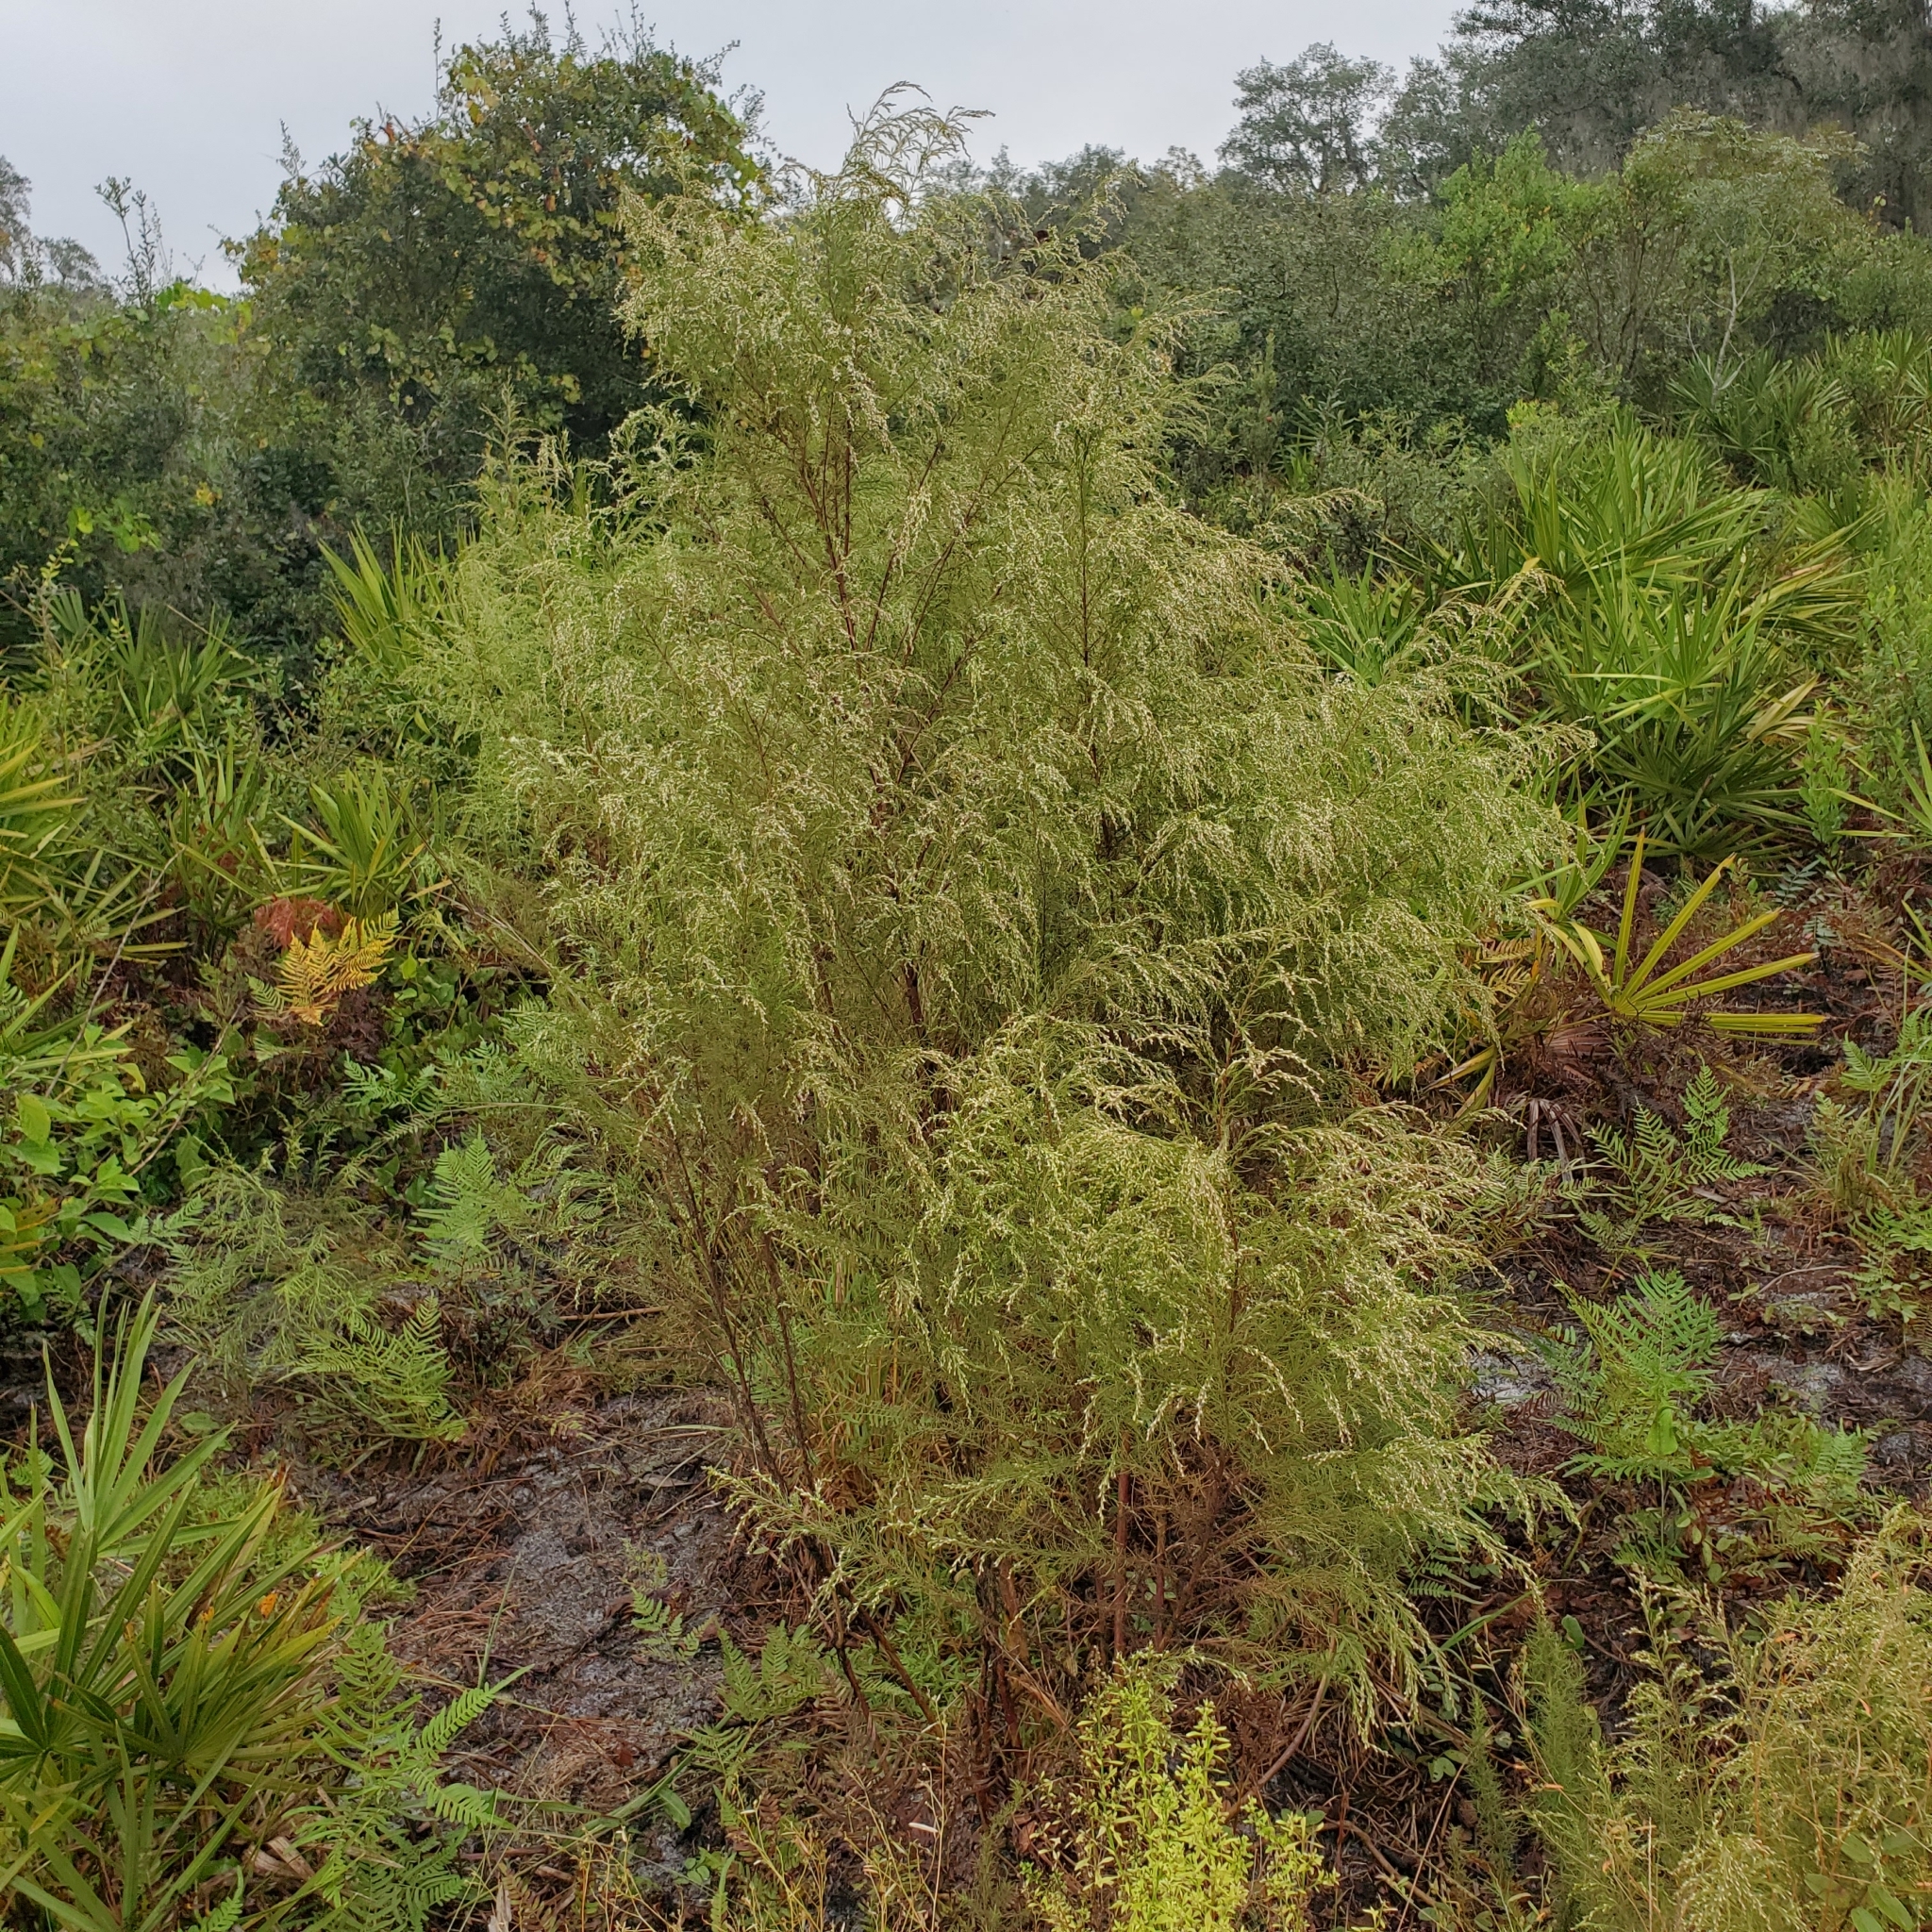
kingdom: Plantae
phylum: Tracheophyta
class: Magnoliopsida
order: Asterales
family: Asteraceae
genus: Eupatorium
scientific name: Eupatorium capillifolium
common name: Dog-fennel
